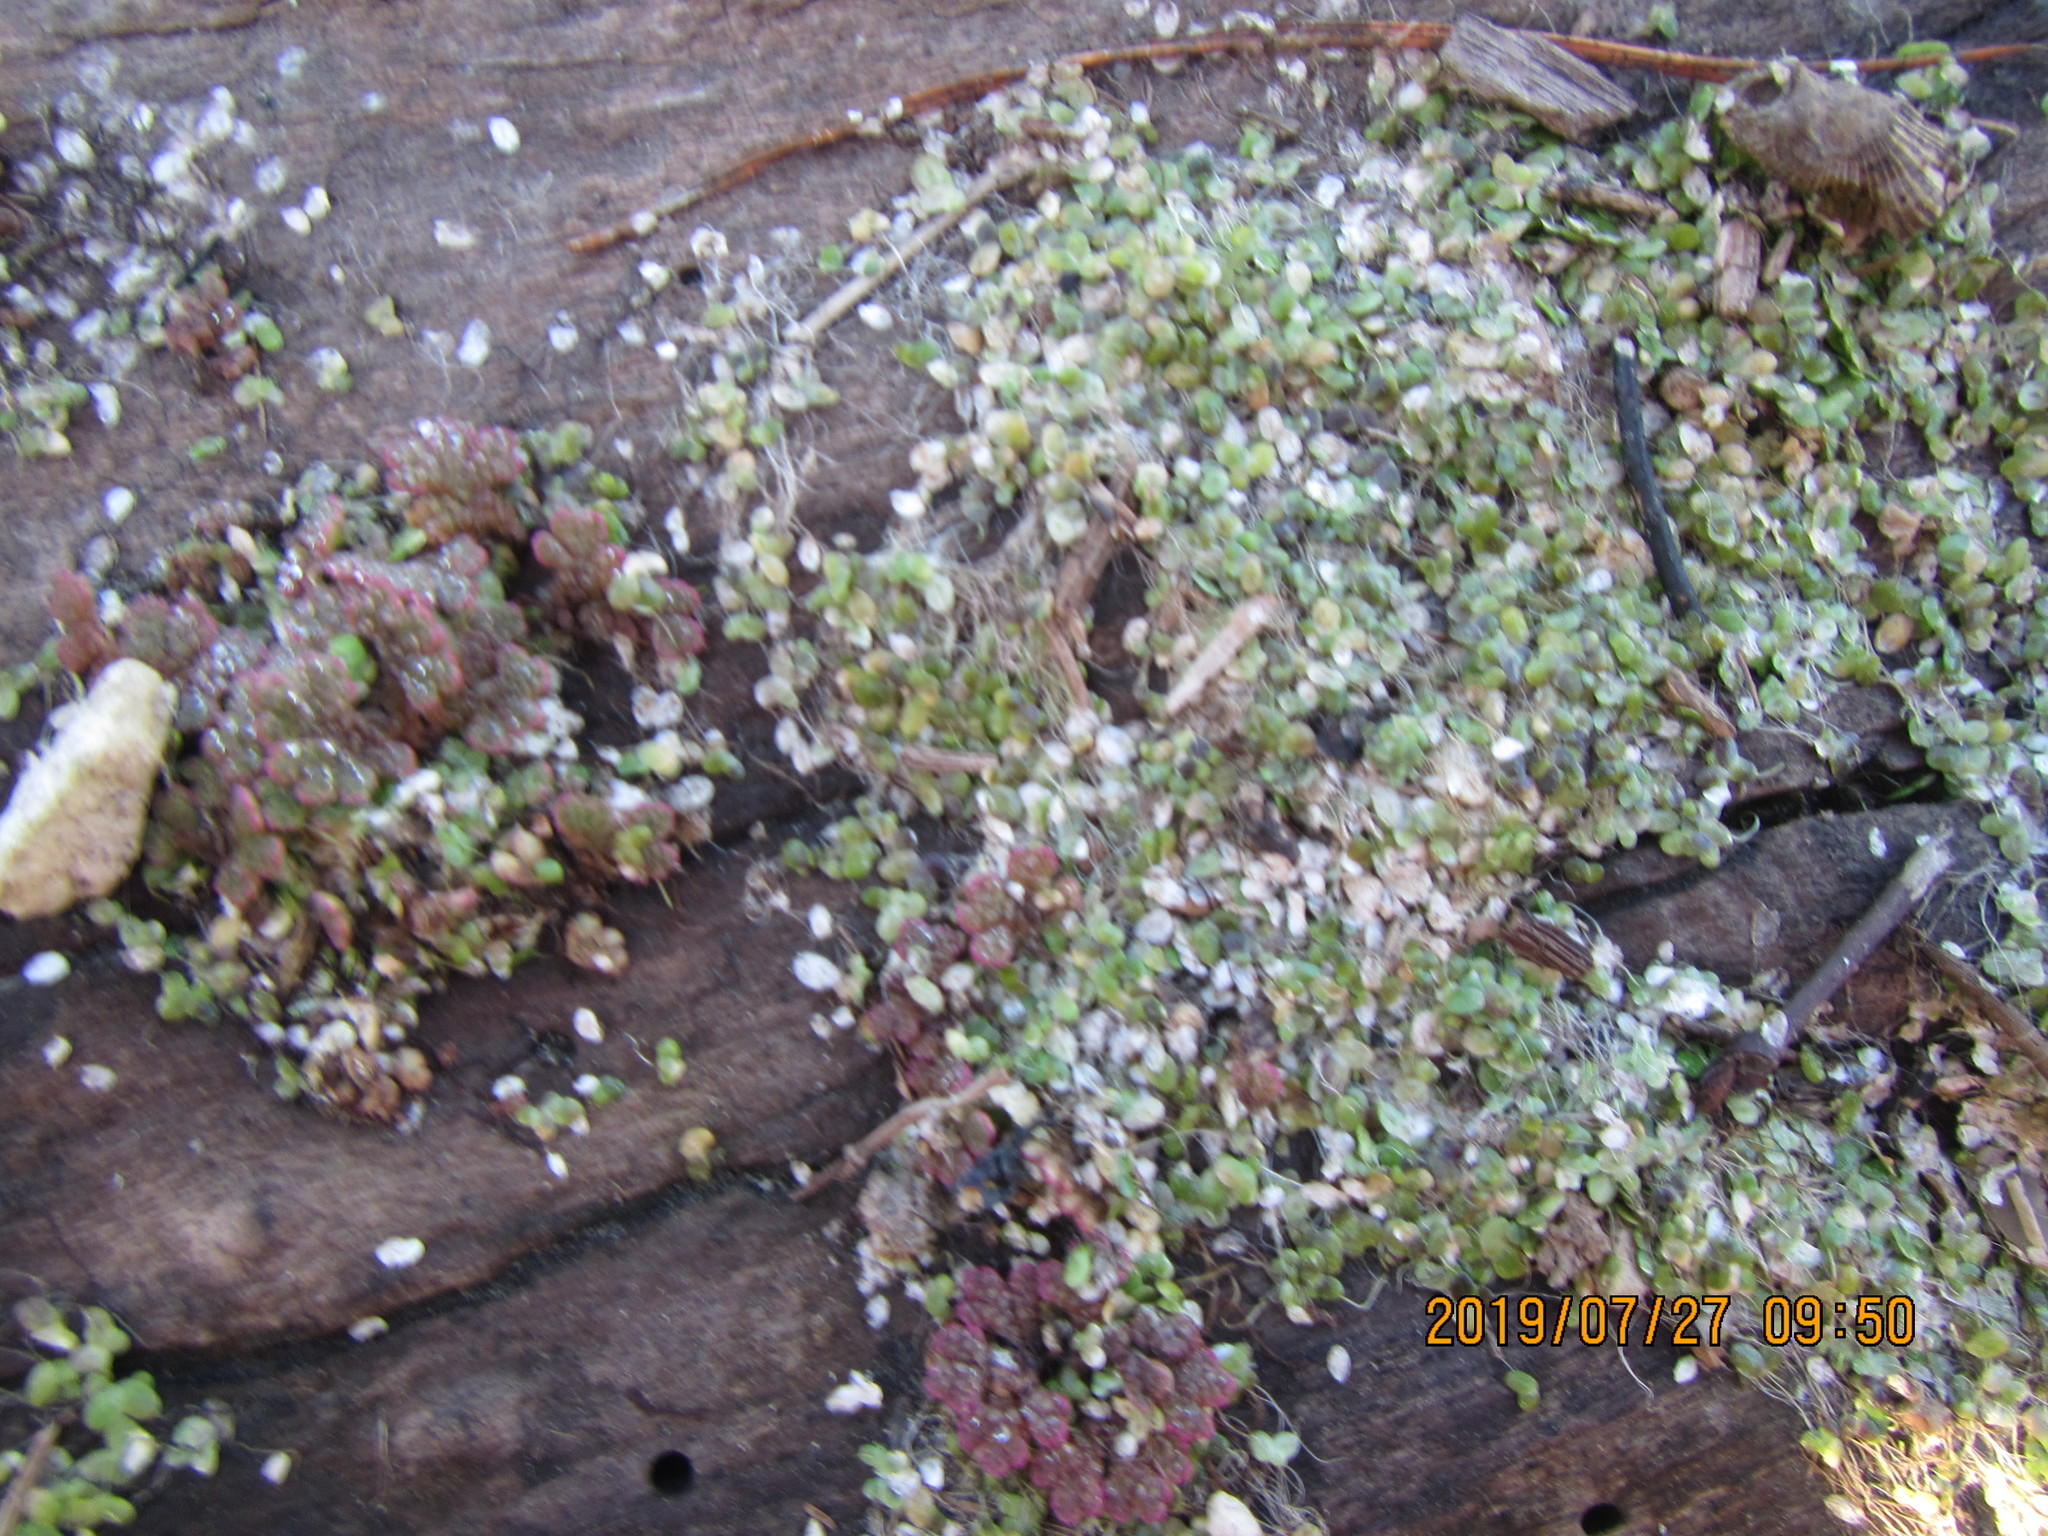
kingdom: Plantae
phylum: Tracheophyta
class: Polypodiopsida
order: Salviniales
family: Salviniaceae
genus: Azolla
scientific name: Azolla rubra
